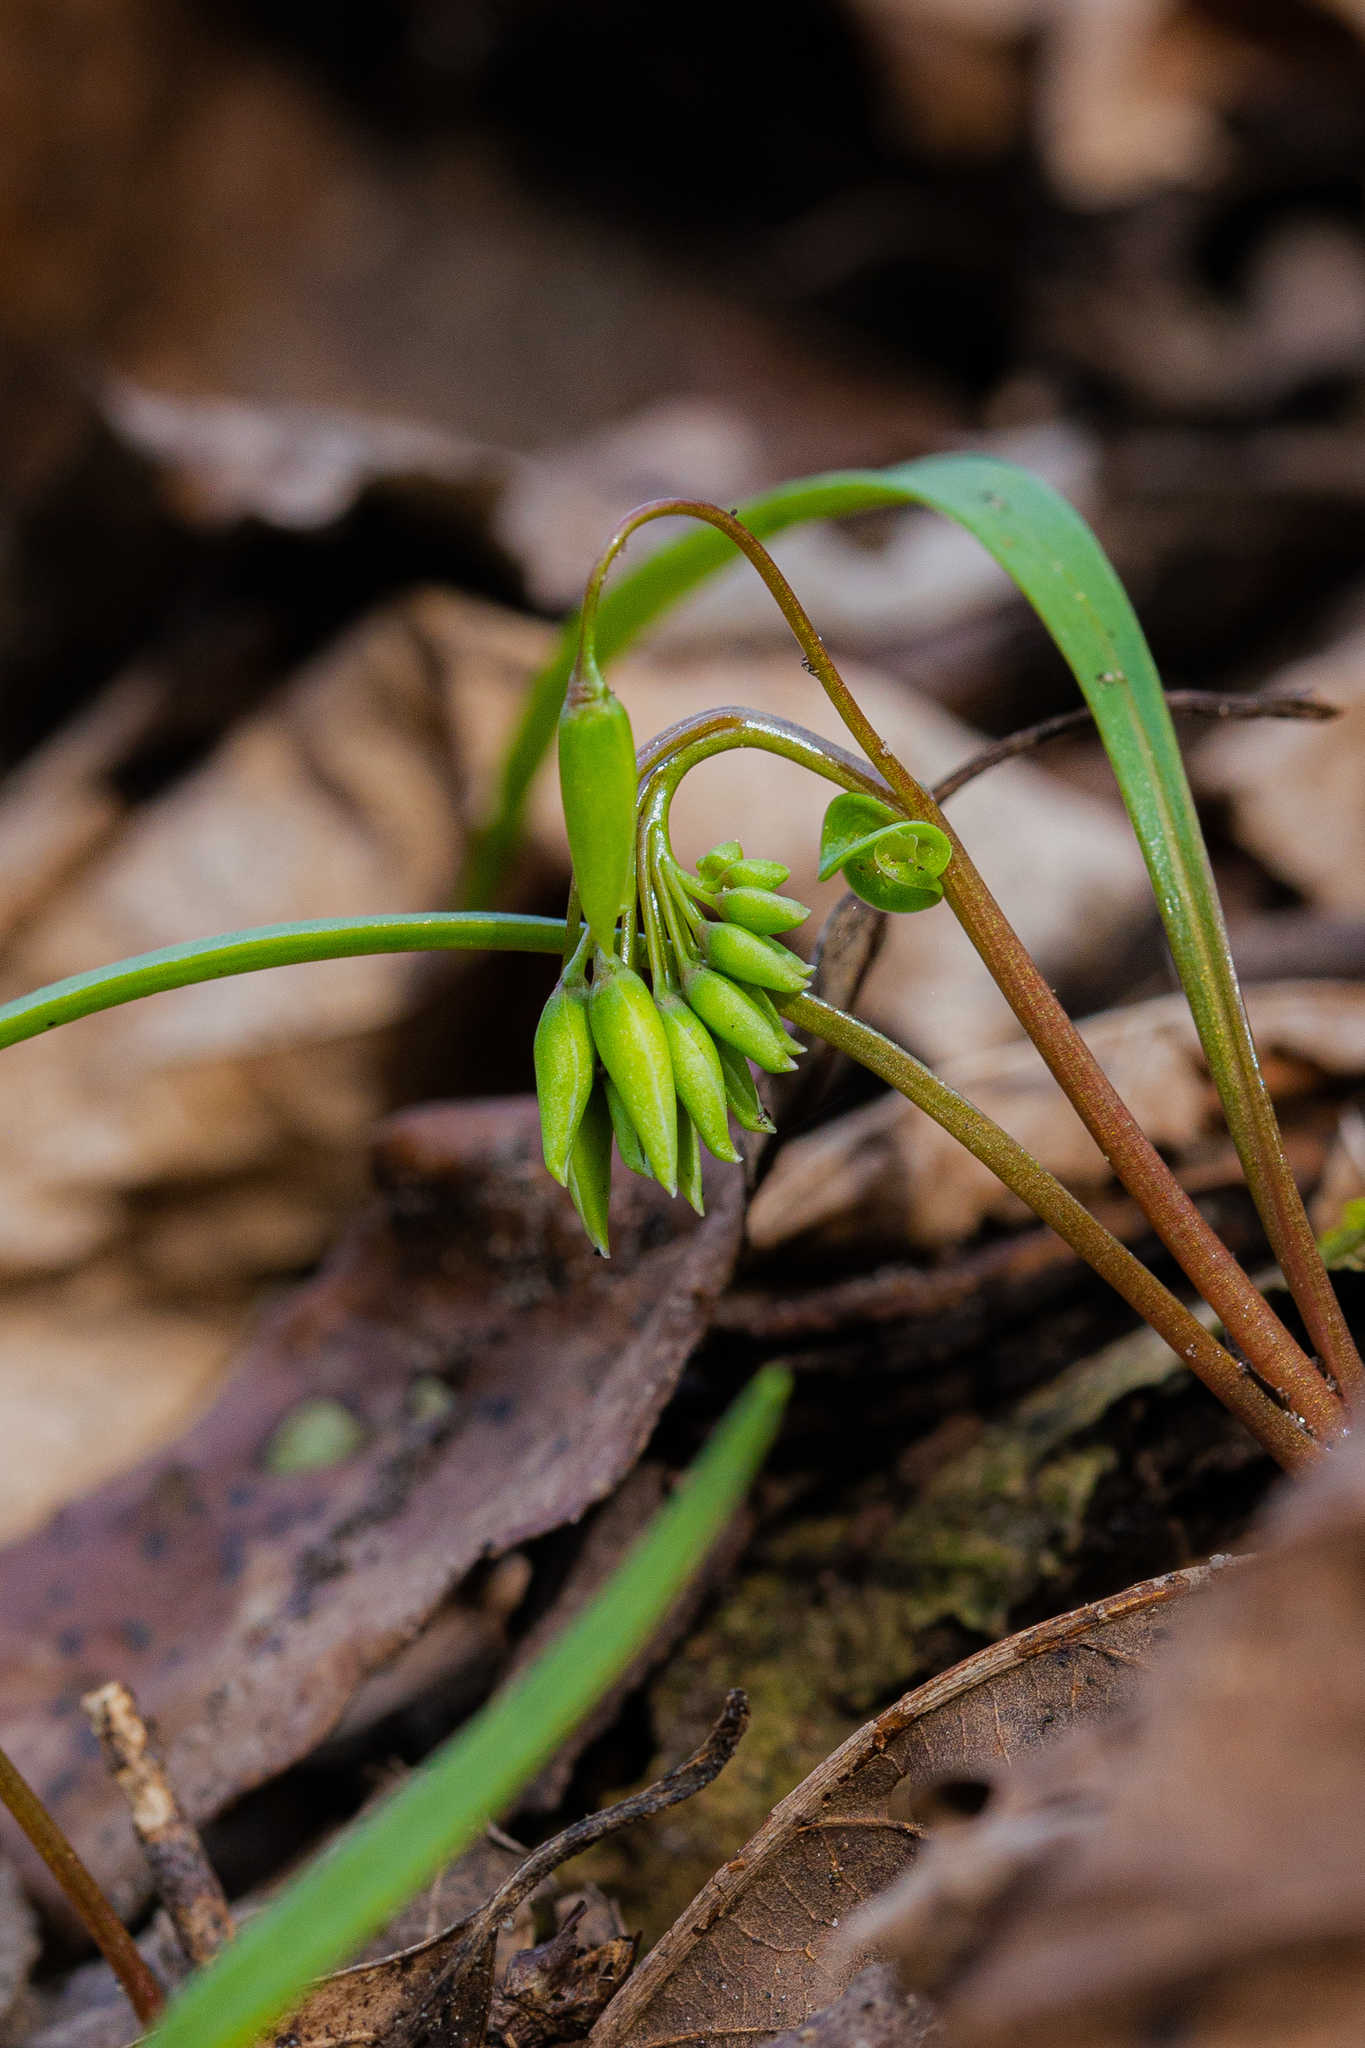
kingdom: Plantae
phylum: Tracheophyta
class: Magnoliopsida
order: Caryophyllales
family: Montiaceae
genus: Claytonia
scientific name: Claytonia virginica
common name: Virginia springbeauty
